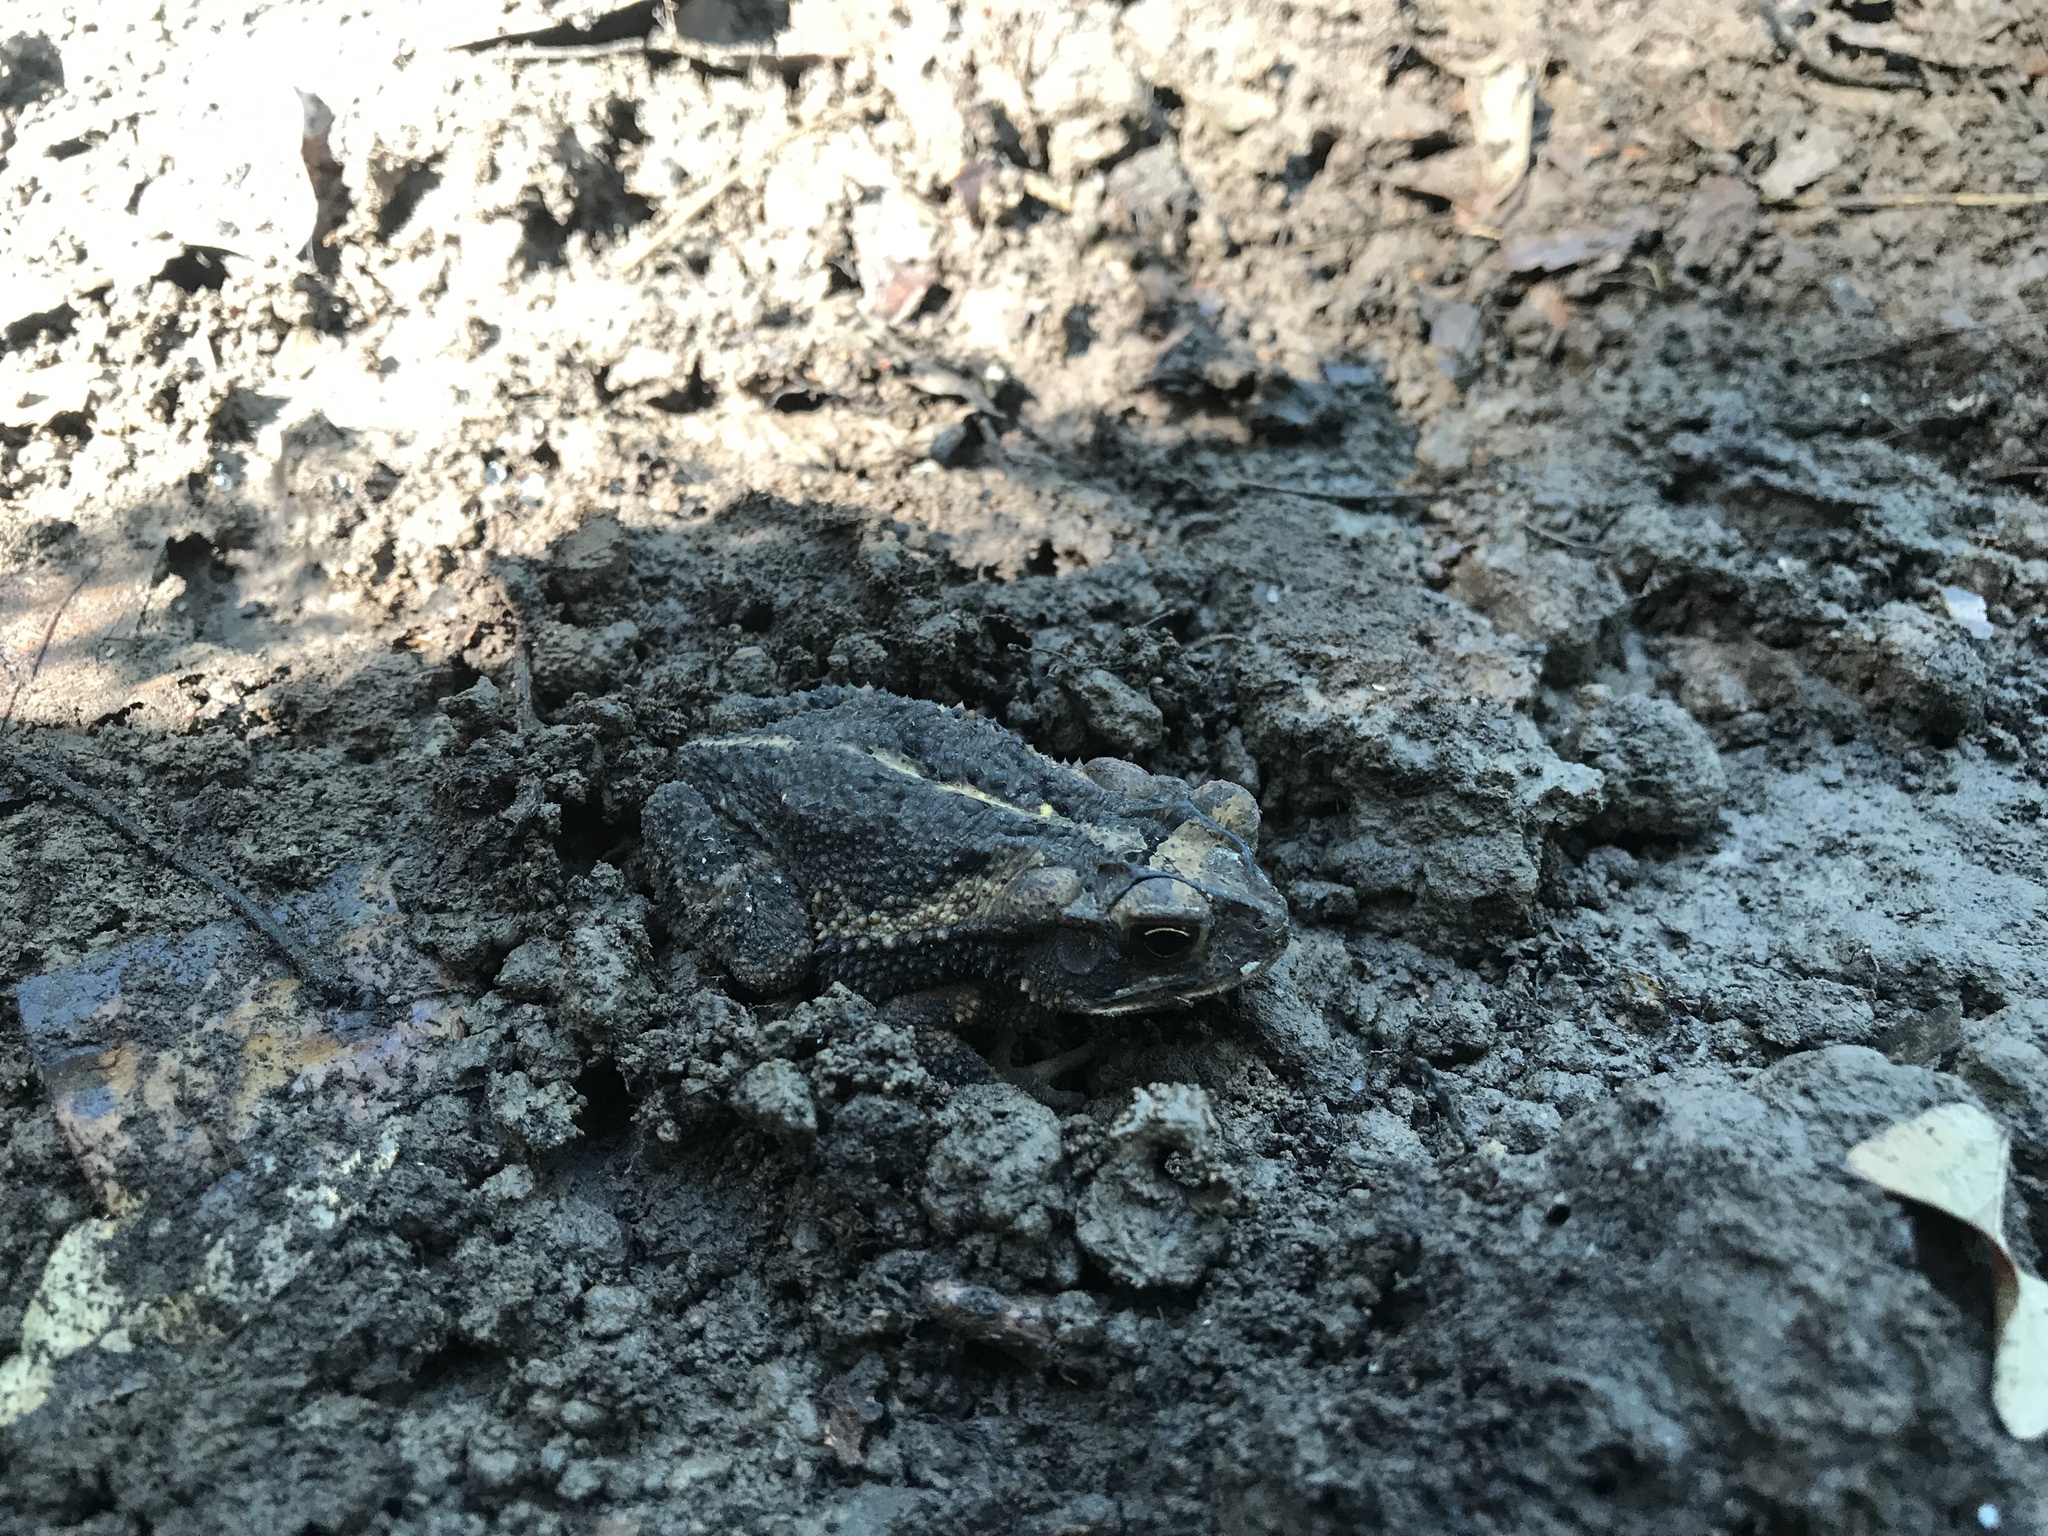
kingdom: Animalia
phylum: Chordata
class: Amphibia
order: Anura
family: Bufonidae
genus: Incilius
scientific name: Incilius nebulifer
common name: Gulf coast toad
